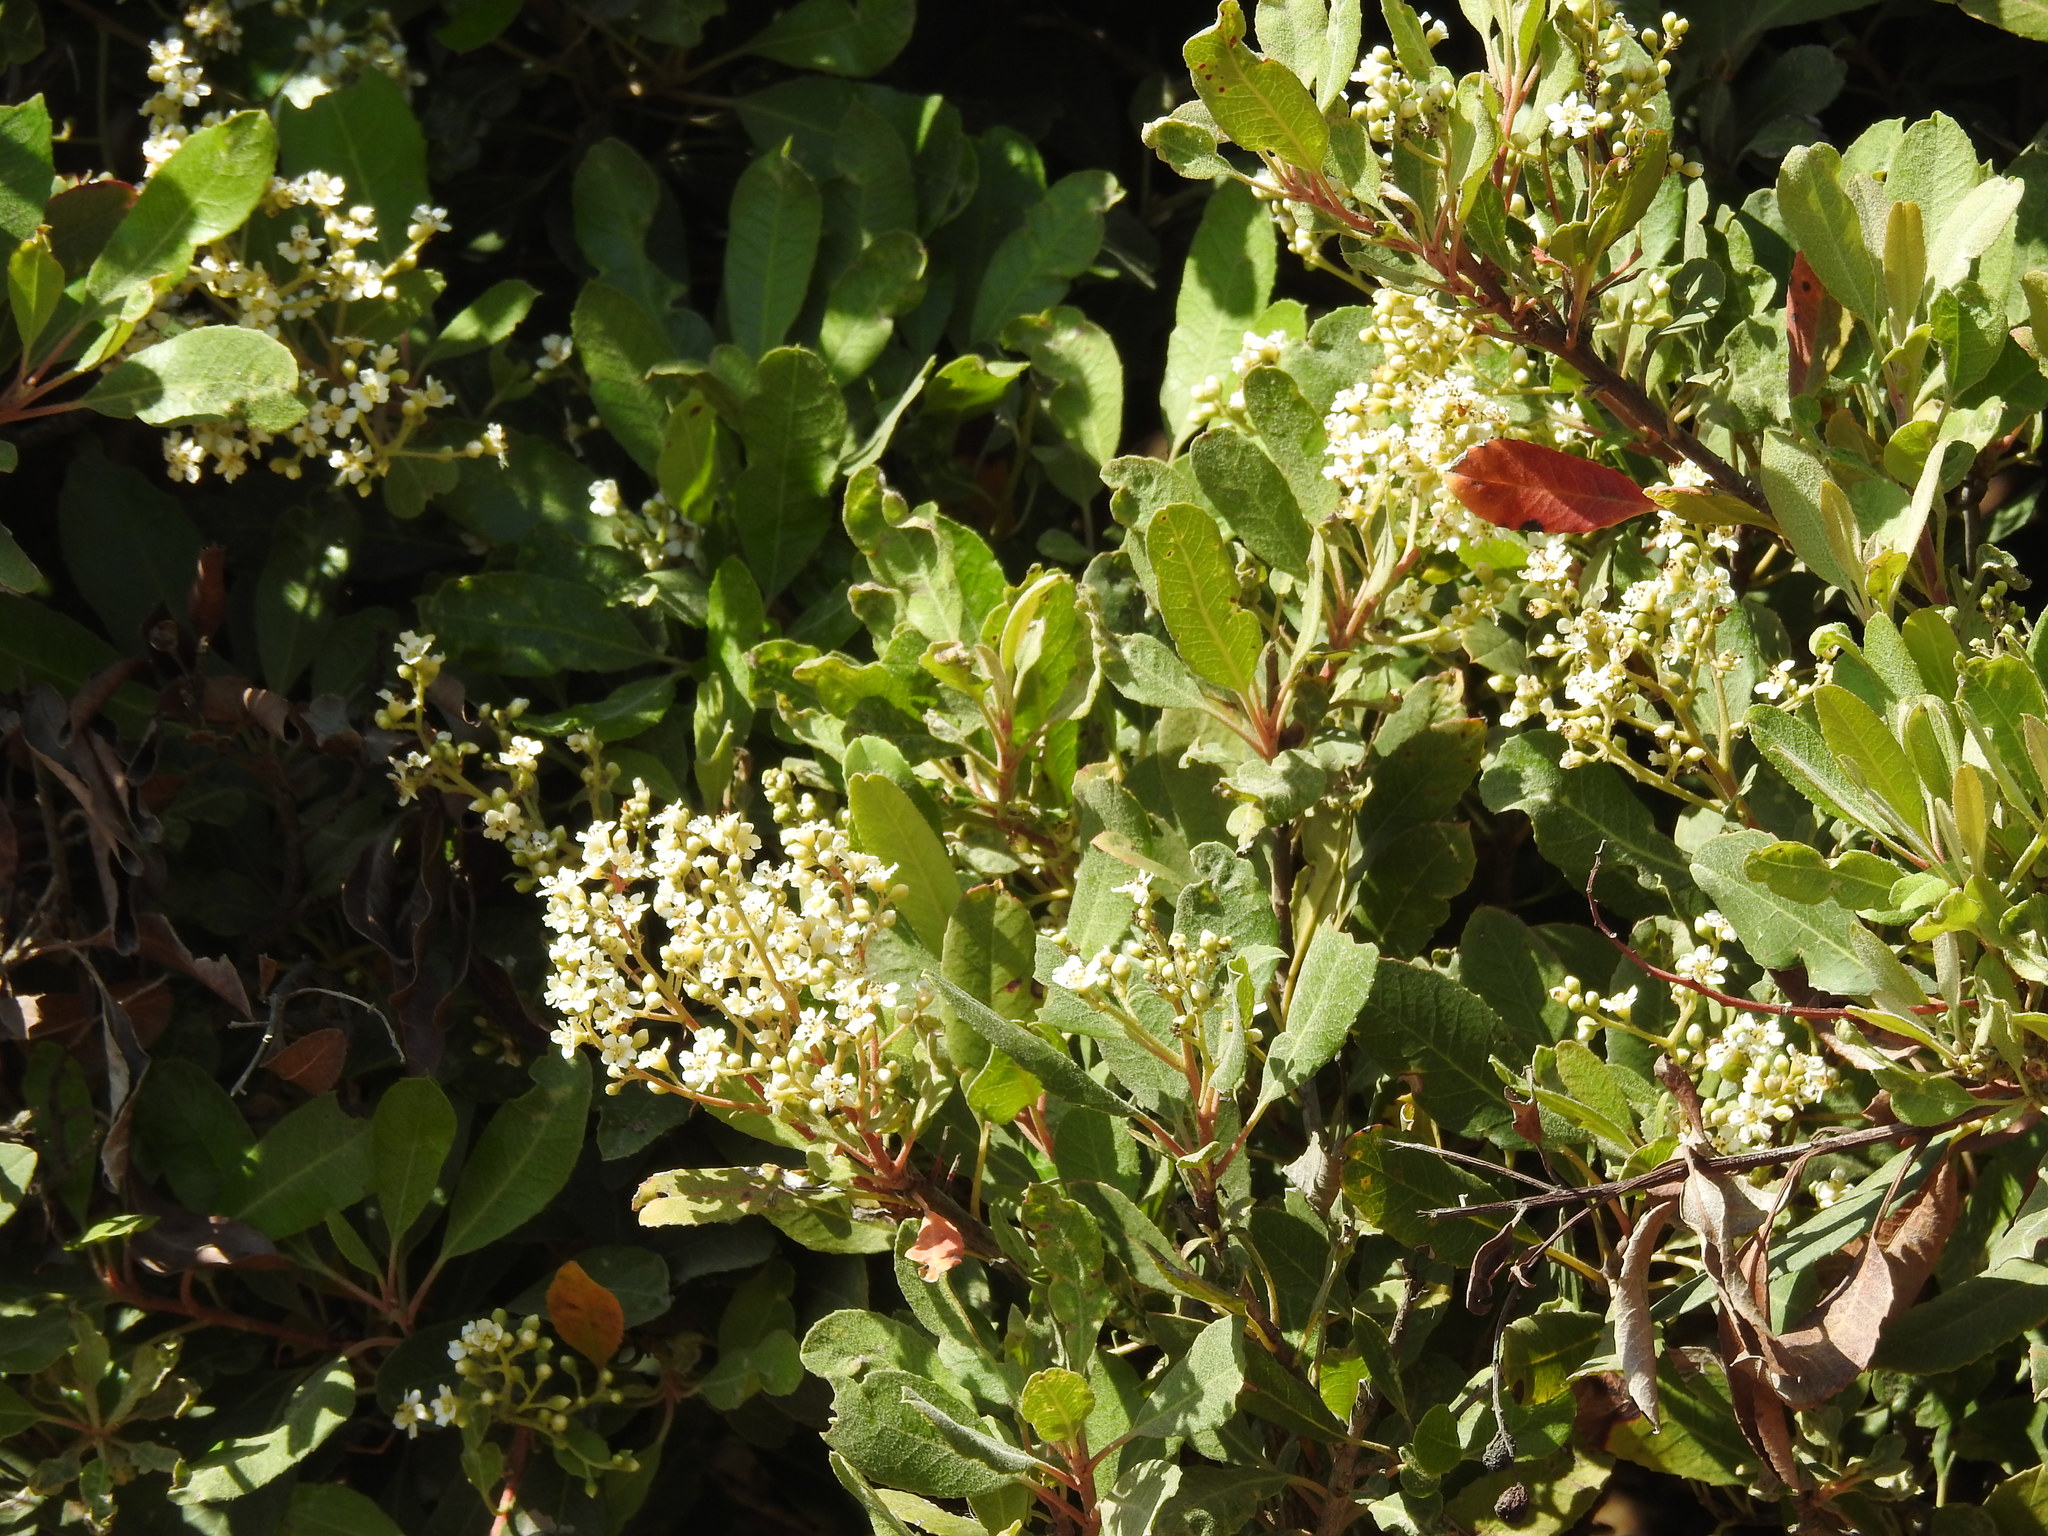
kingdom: Plantae
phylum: Tracheophyta
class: Magnoliopsida
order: Rosales
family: Rosaceae
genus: Heteromeles
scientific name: Heteromeles arbutifolia
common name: California-holly
